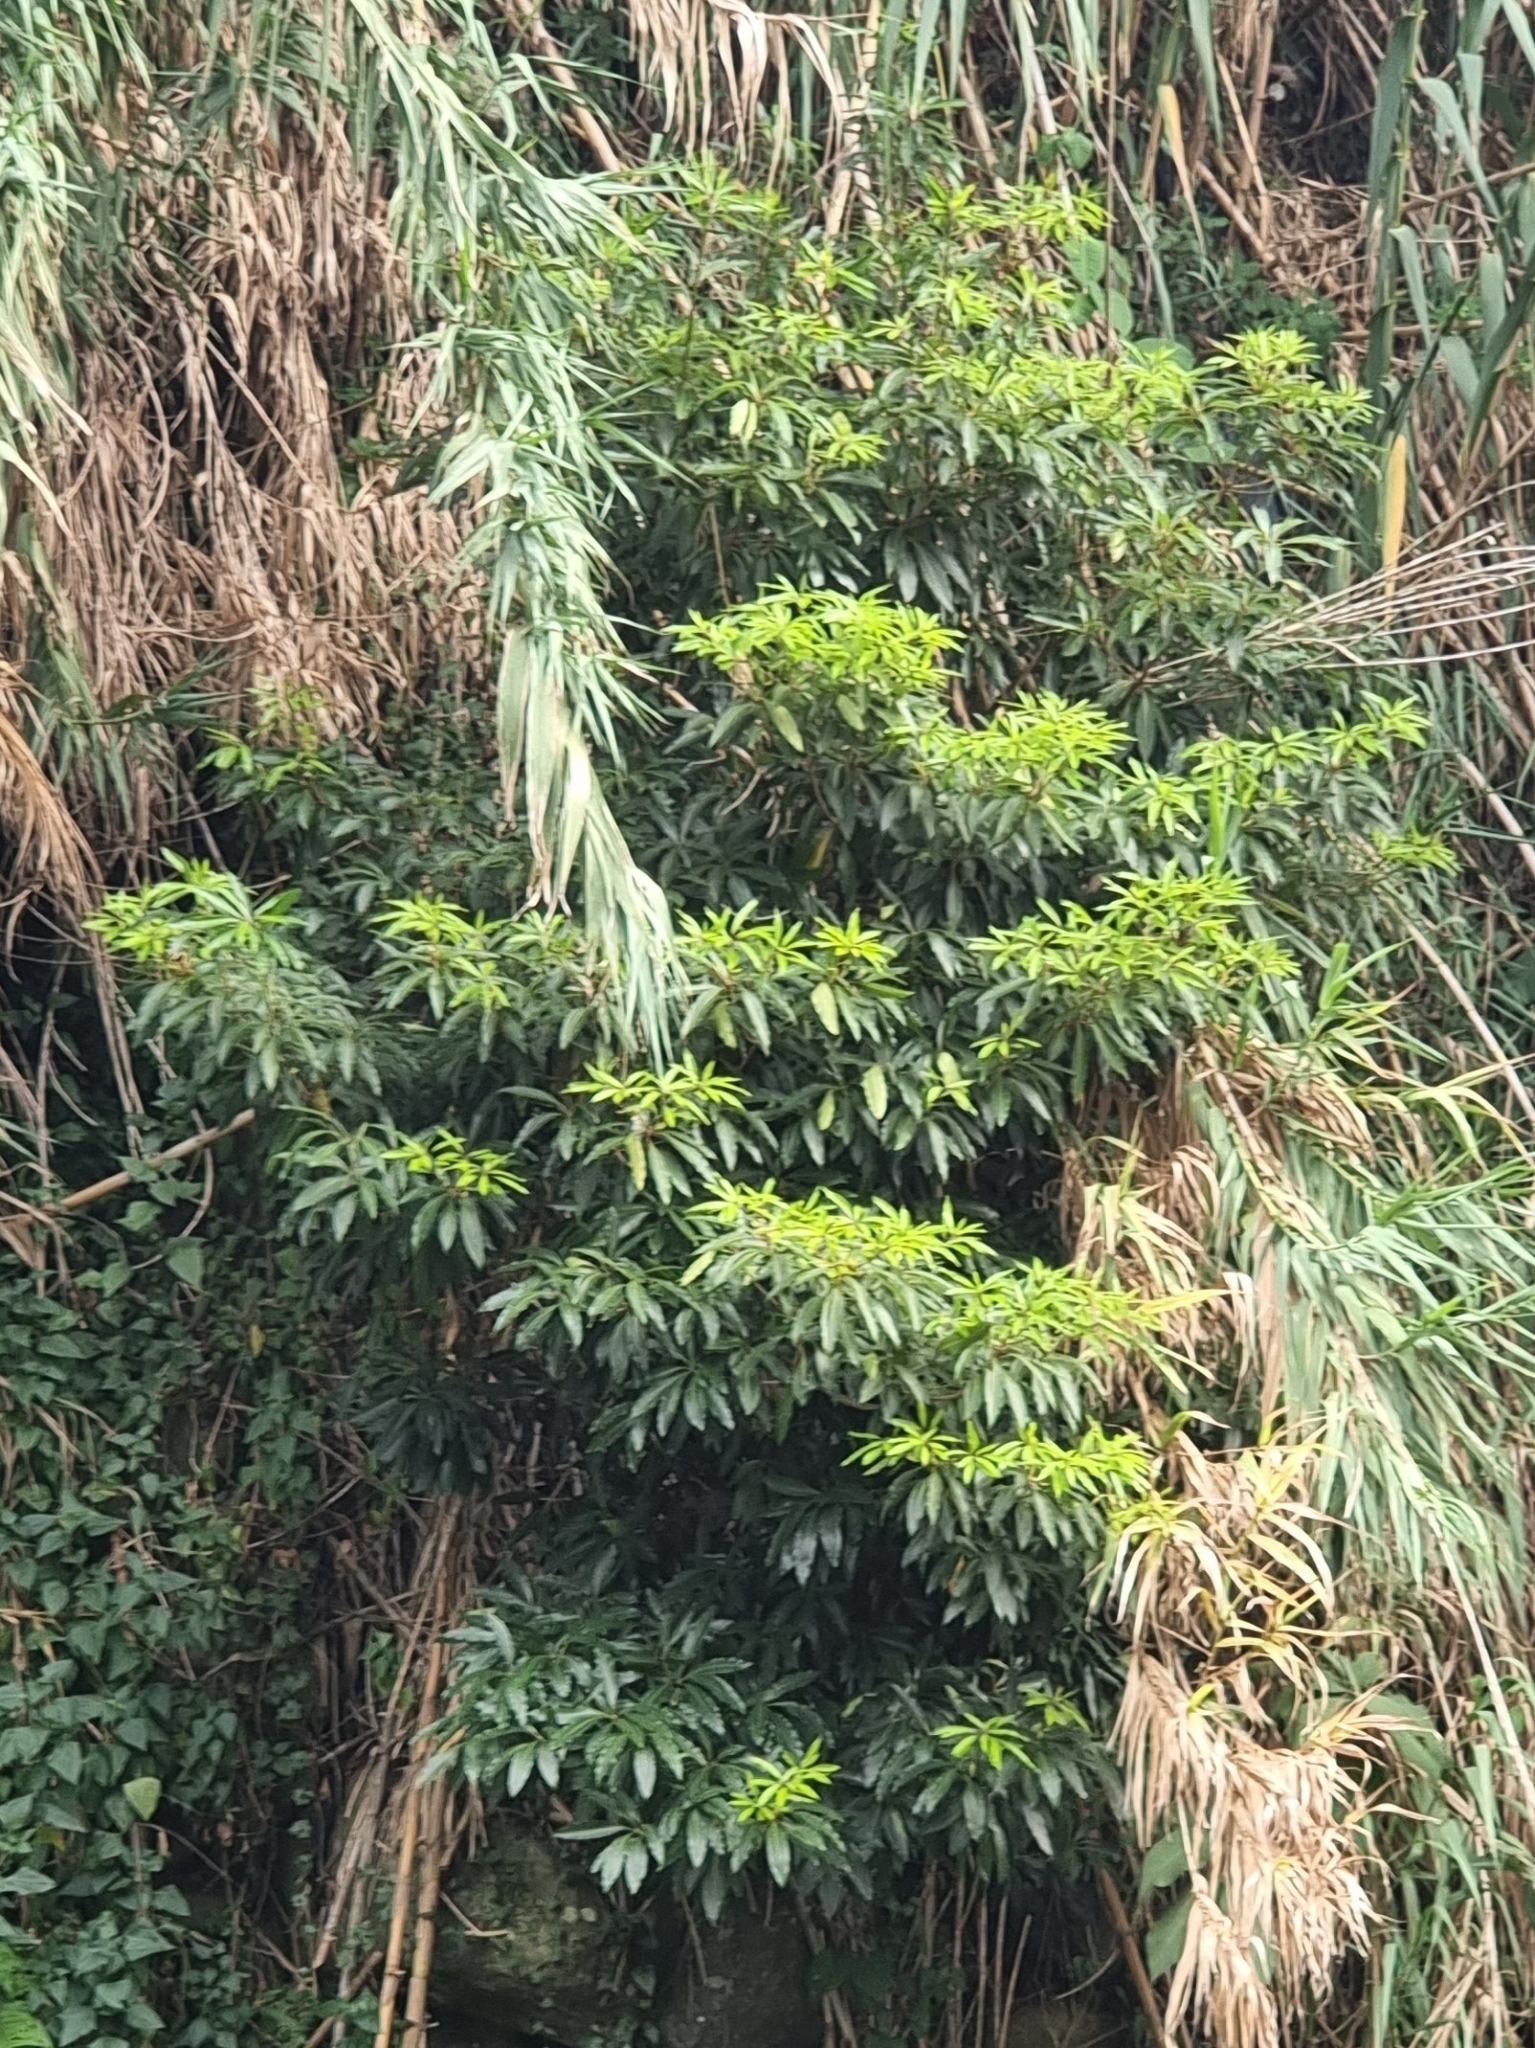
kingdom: Plantae
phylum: Tracheophyta
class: Magnoliopsida
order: Apiales
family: Pittosporaceae
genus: Pittosporum
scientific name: Pittosporum undulatum
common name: Australian cheesewood
